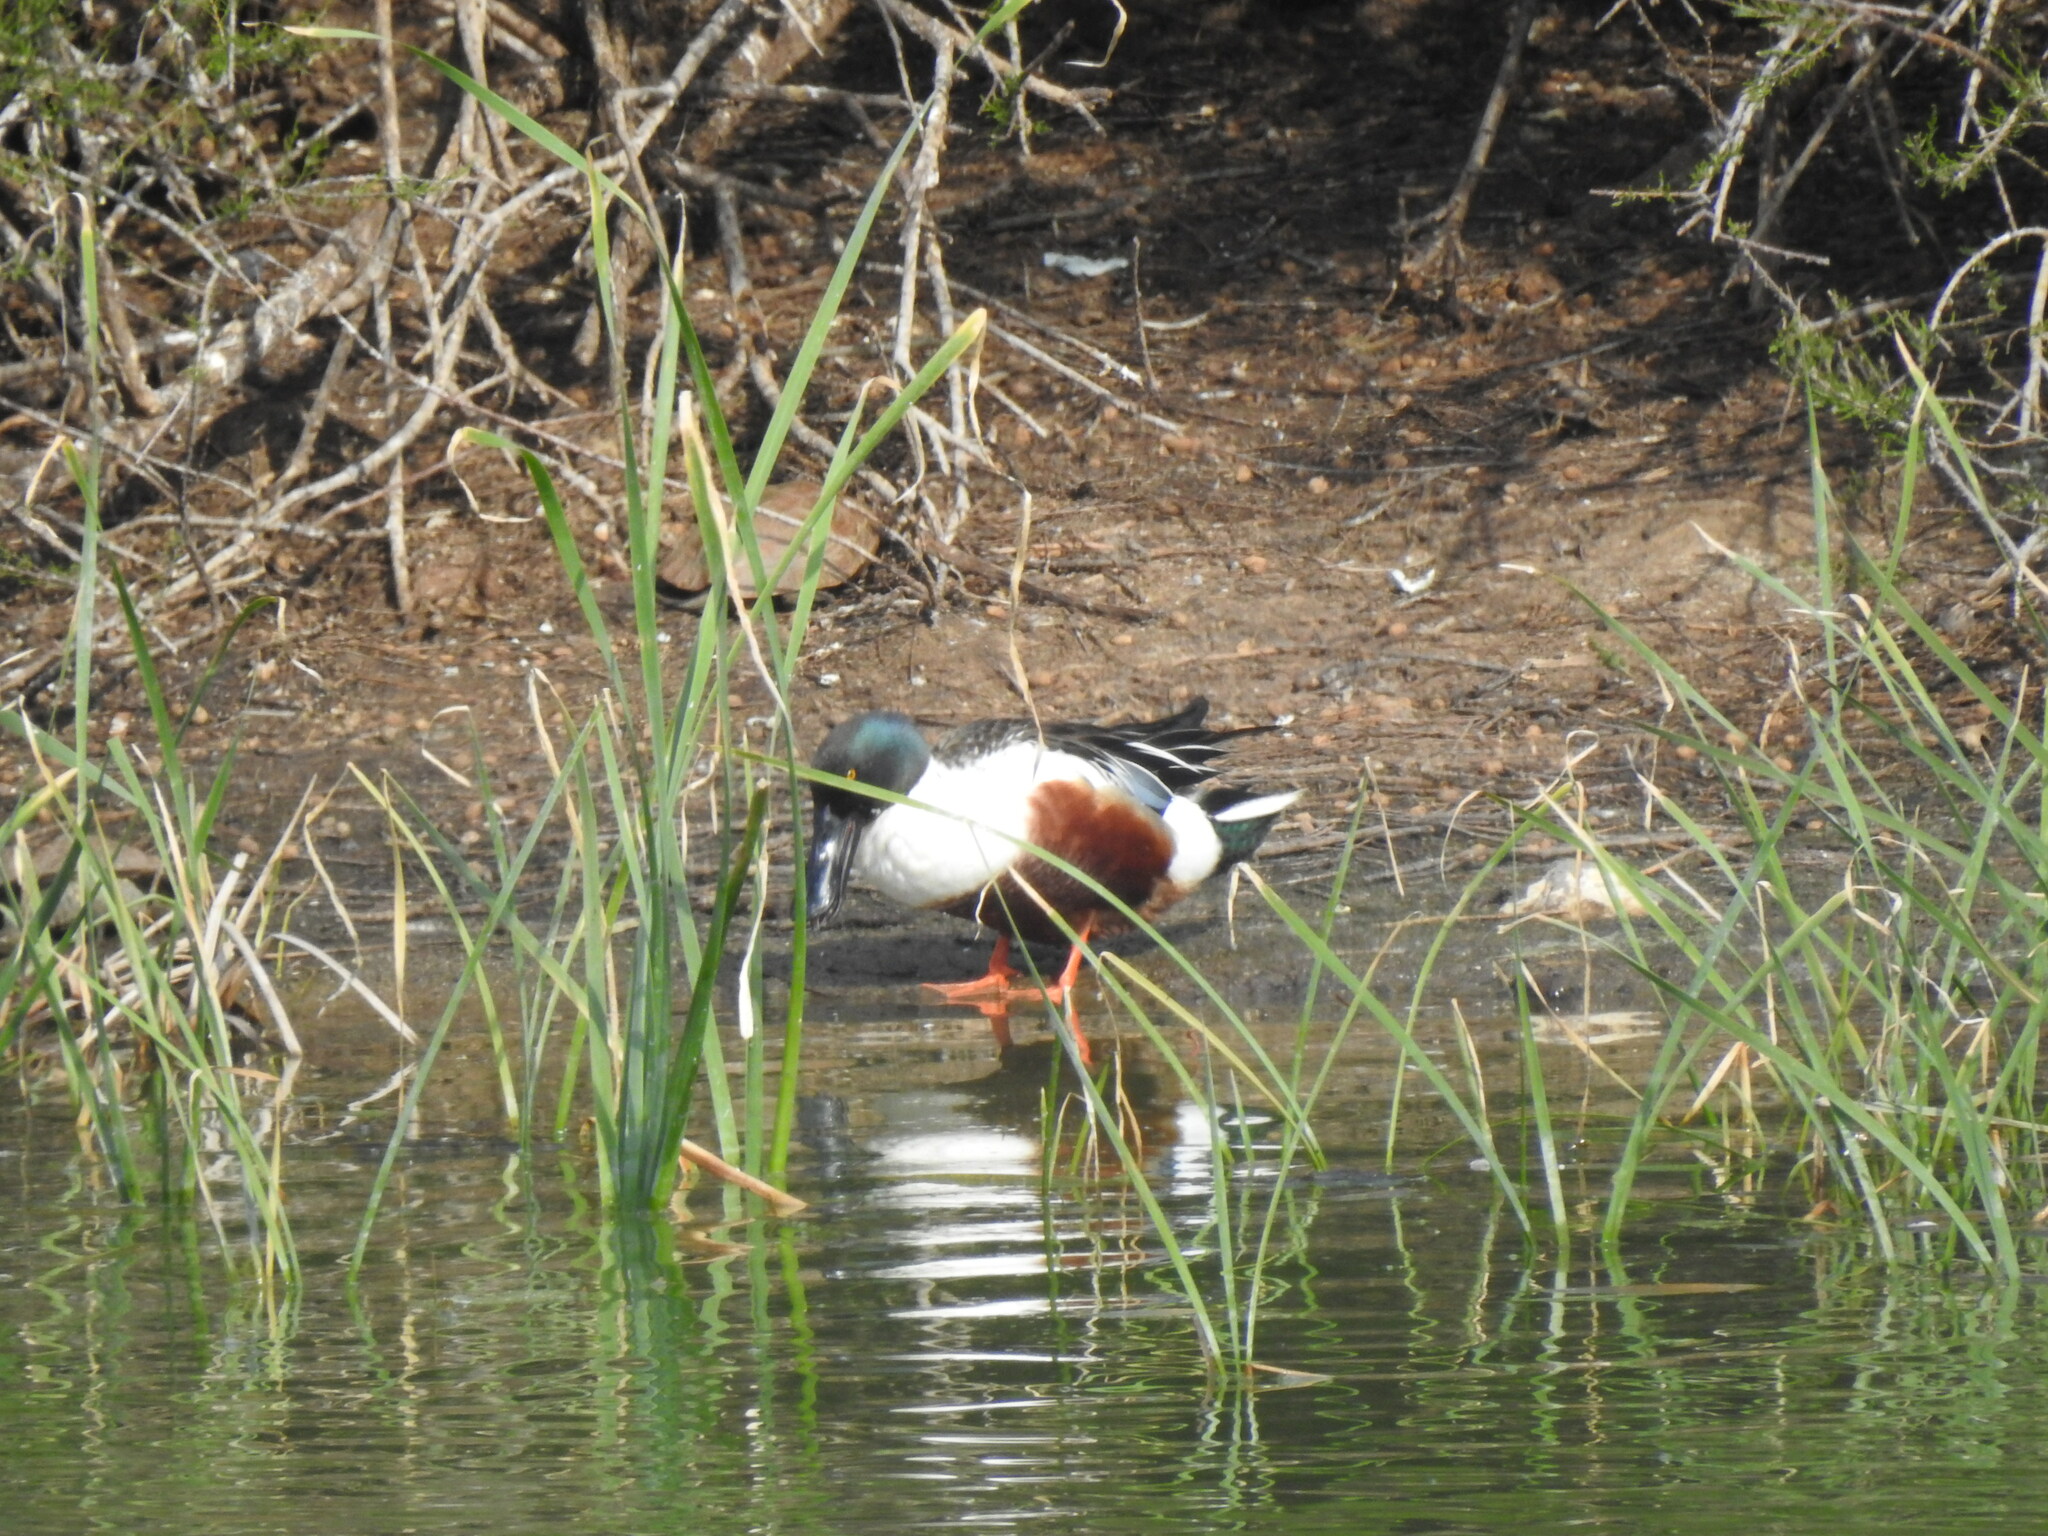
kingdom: Animalia
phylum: Chordata
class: Aves
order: Anseriformes
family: Anatidae
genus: Spatula
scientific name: Spatula clypeata
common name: Northern shoveler
